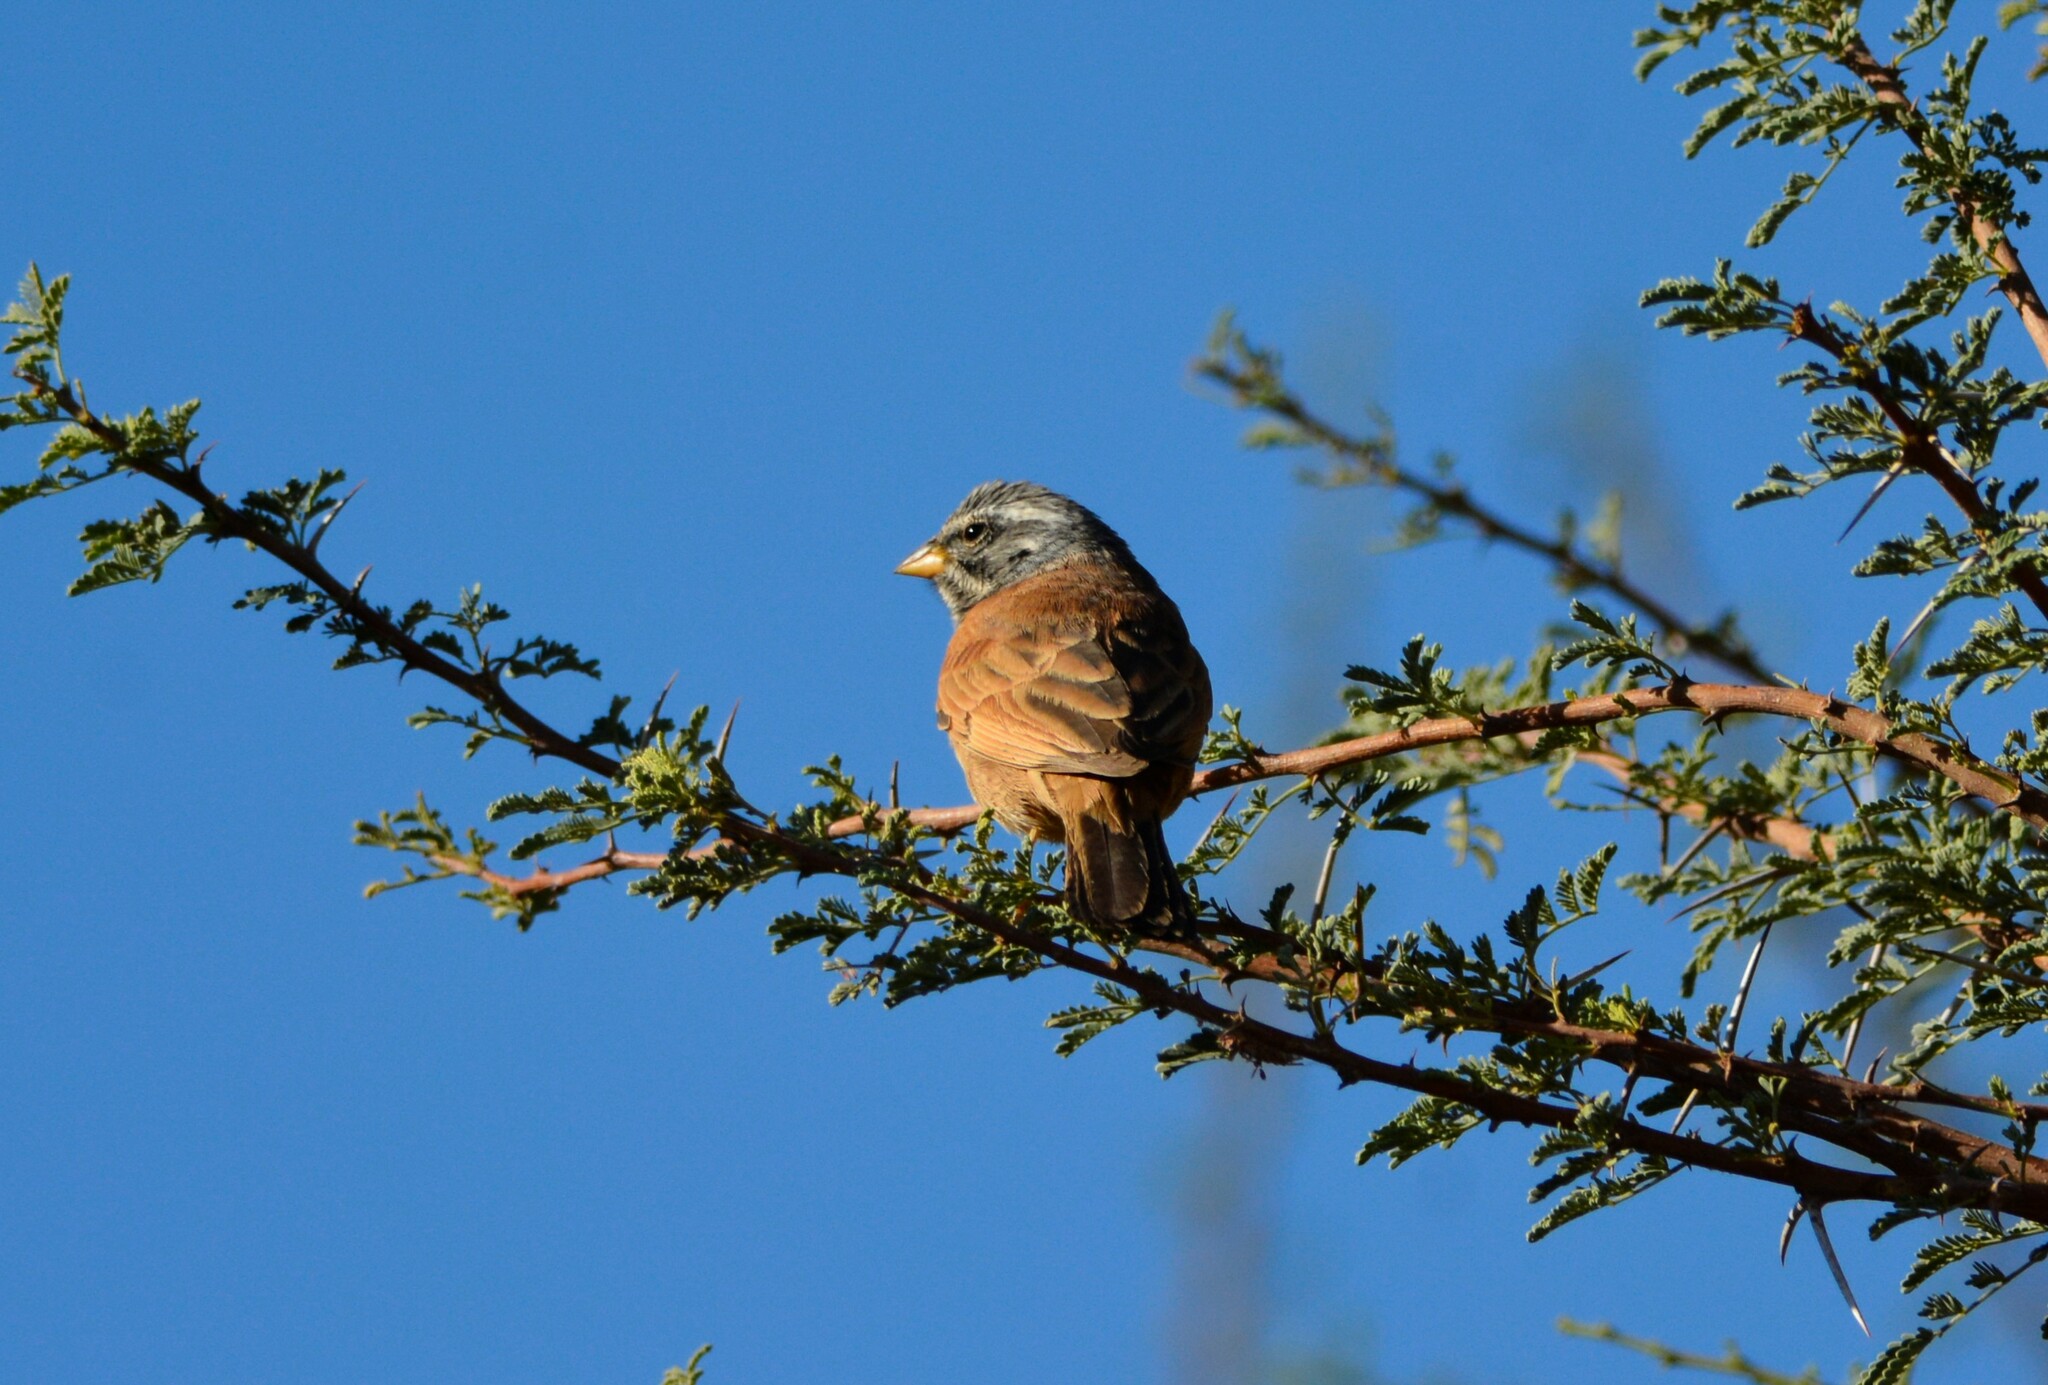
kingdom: Animalia
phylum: Chordata
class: Aves
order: Passeriformes
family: Emberizidae
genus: Emberiza
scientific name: Emberiza sahari
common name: House bunting
